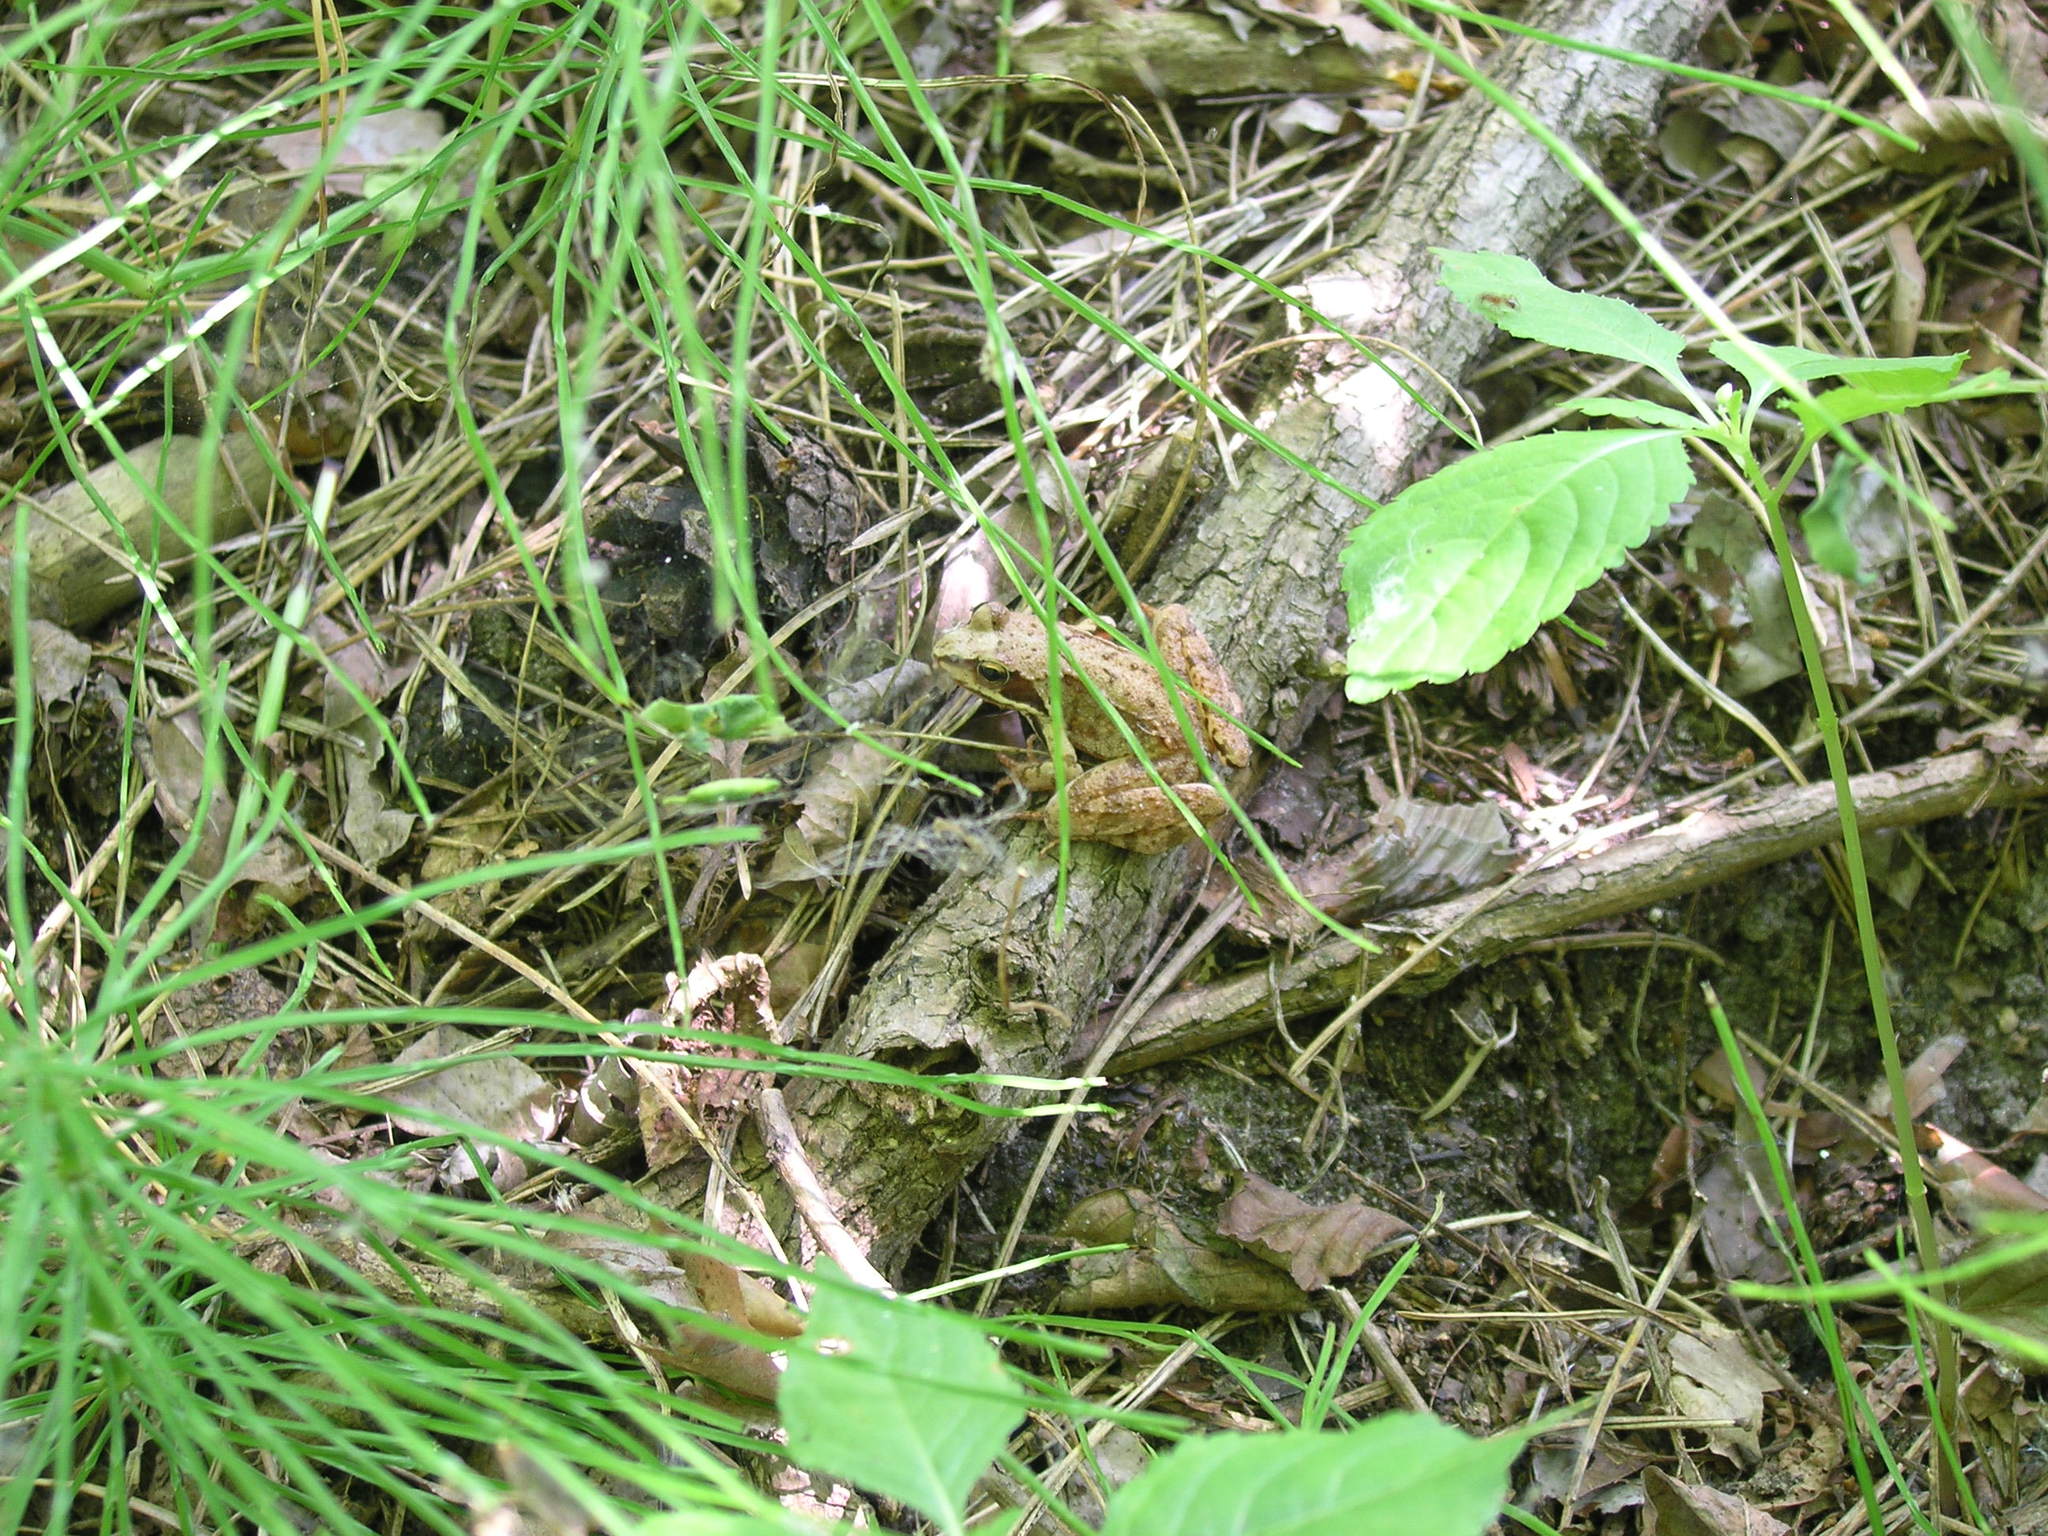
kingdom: Animalia
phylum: Chordata
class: Amphibia
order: Anura
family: Ranidae
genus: Rana
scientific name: Rana temporaria
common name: Common frog
